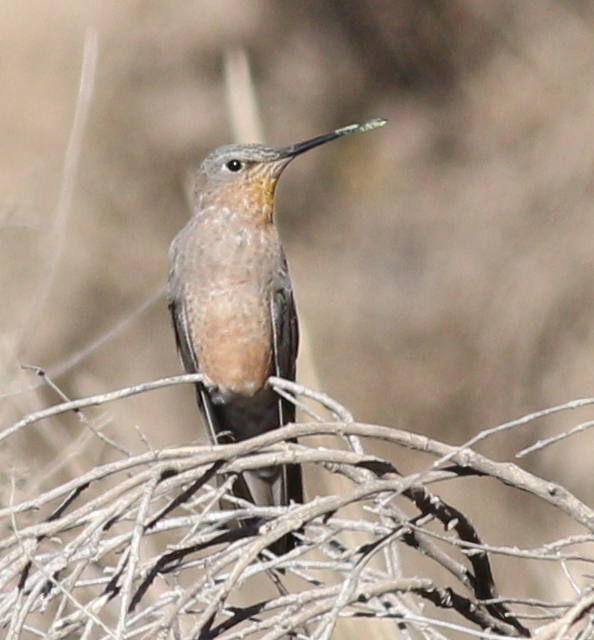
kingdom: Animalia
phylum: Chordata
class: Aves
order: Apodiformes
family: Trochilidae
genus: Patagona
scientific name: Patagona gigas
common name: Giant hummingbird
